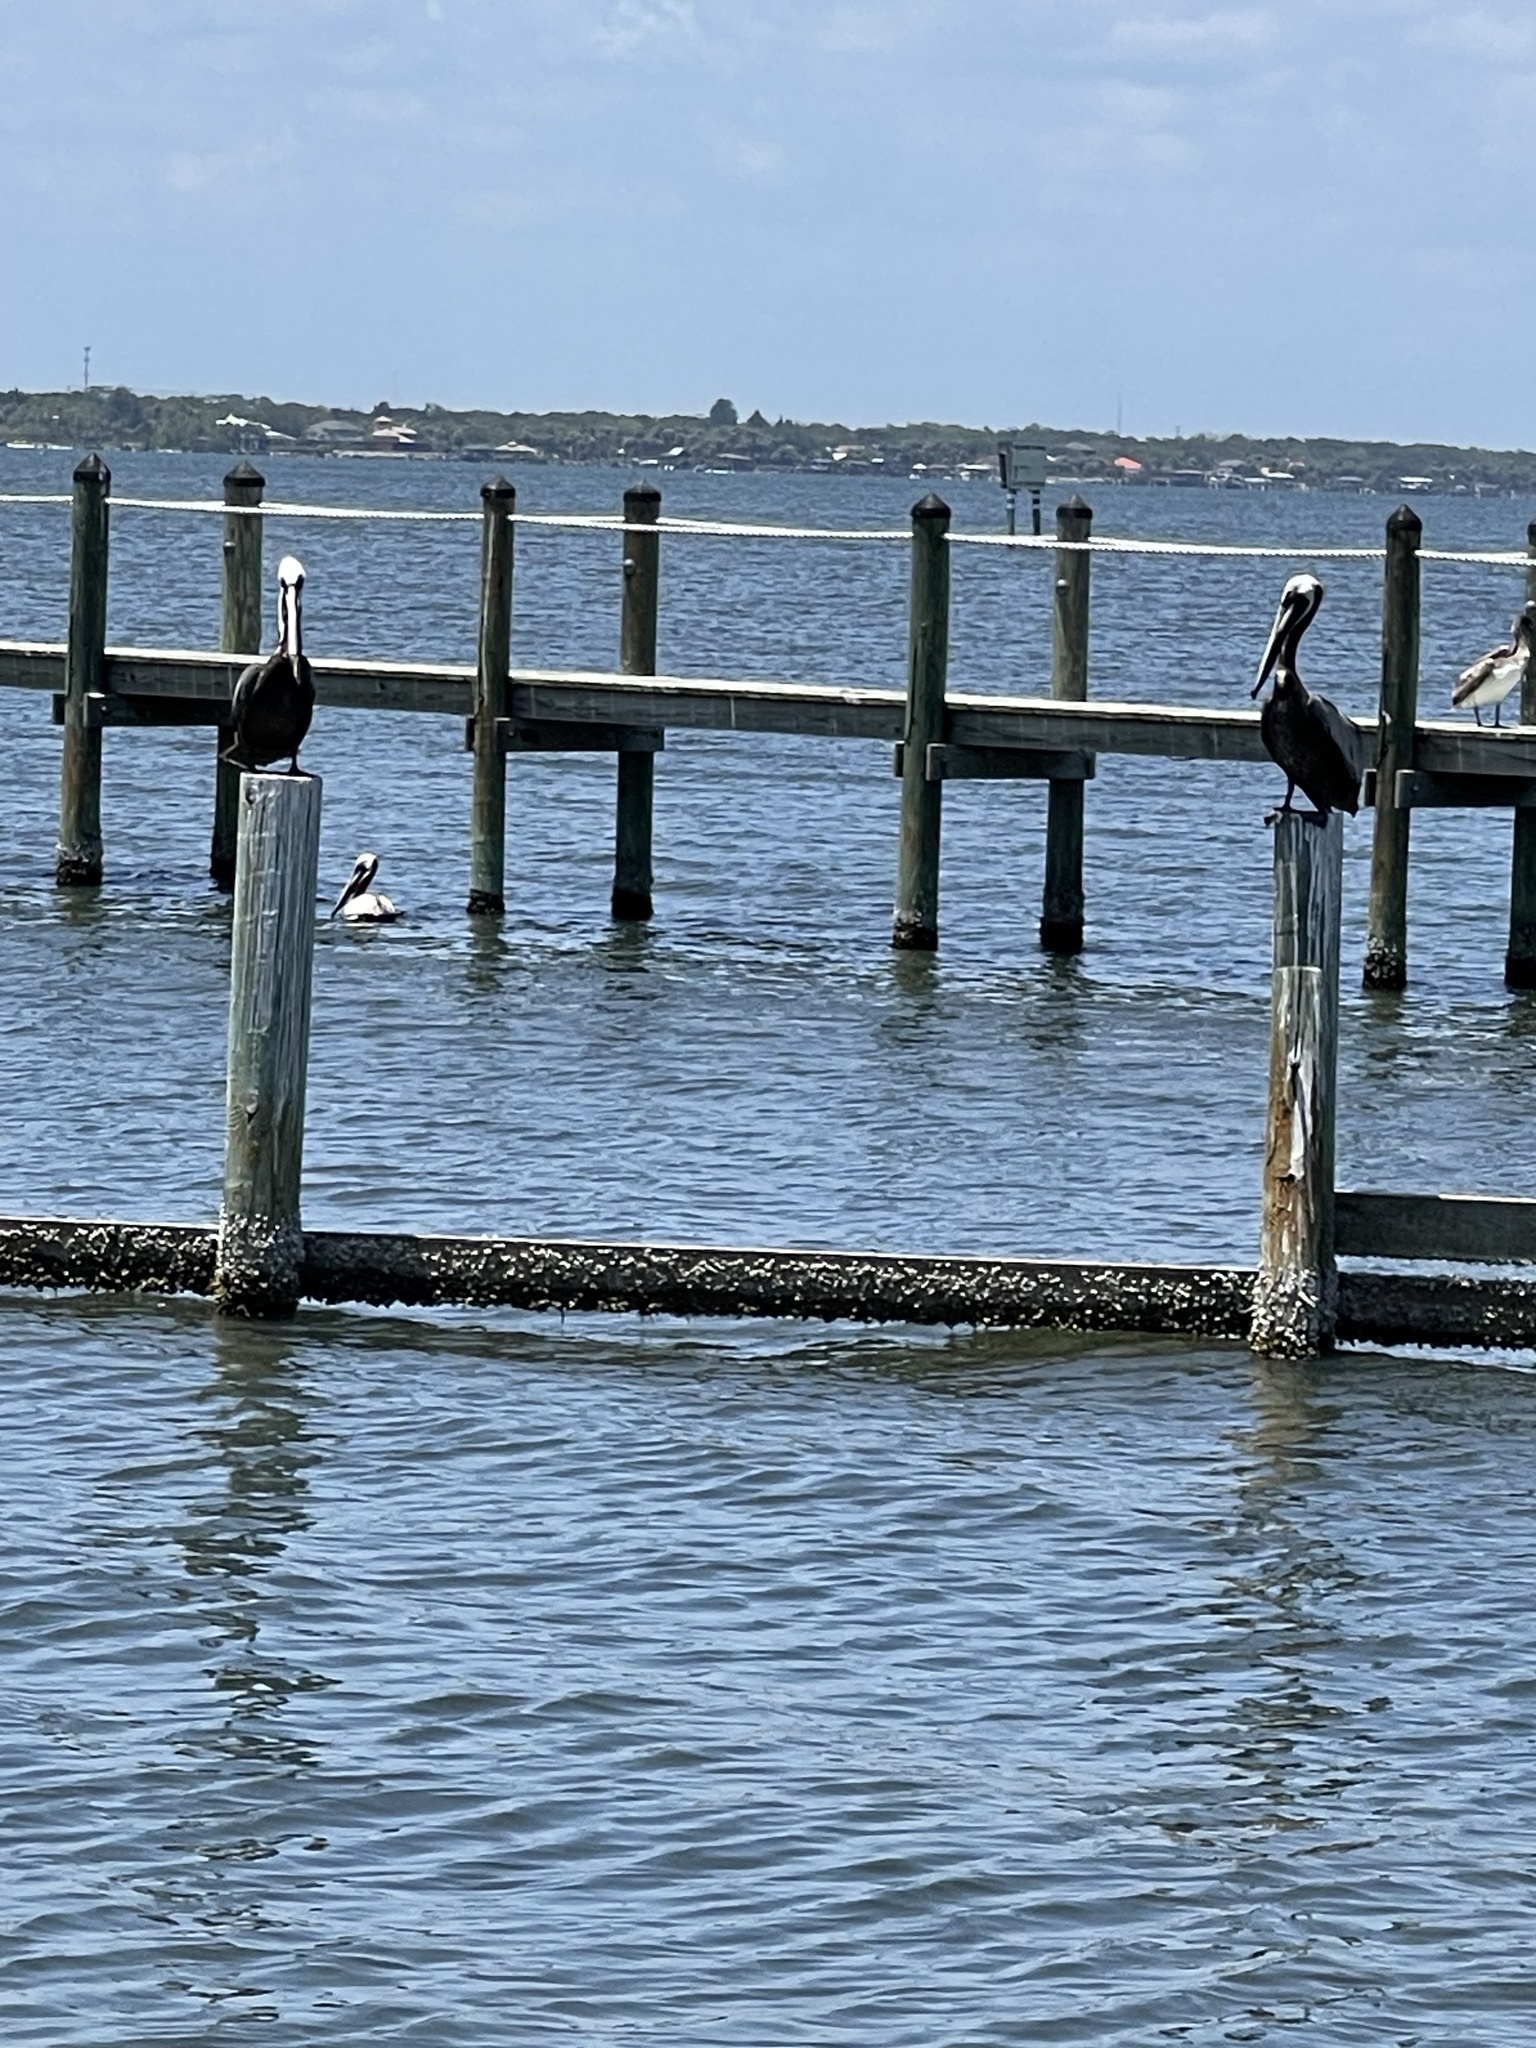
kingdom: Animalia
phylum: Chordata
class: Aves
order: Pelecaniformes
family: Pelecanidae
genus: Pelecanus
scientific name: Pelecanus occidentalis
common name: Brown pelican
